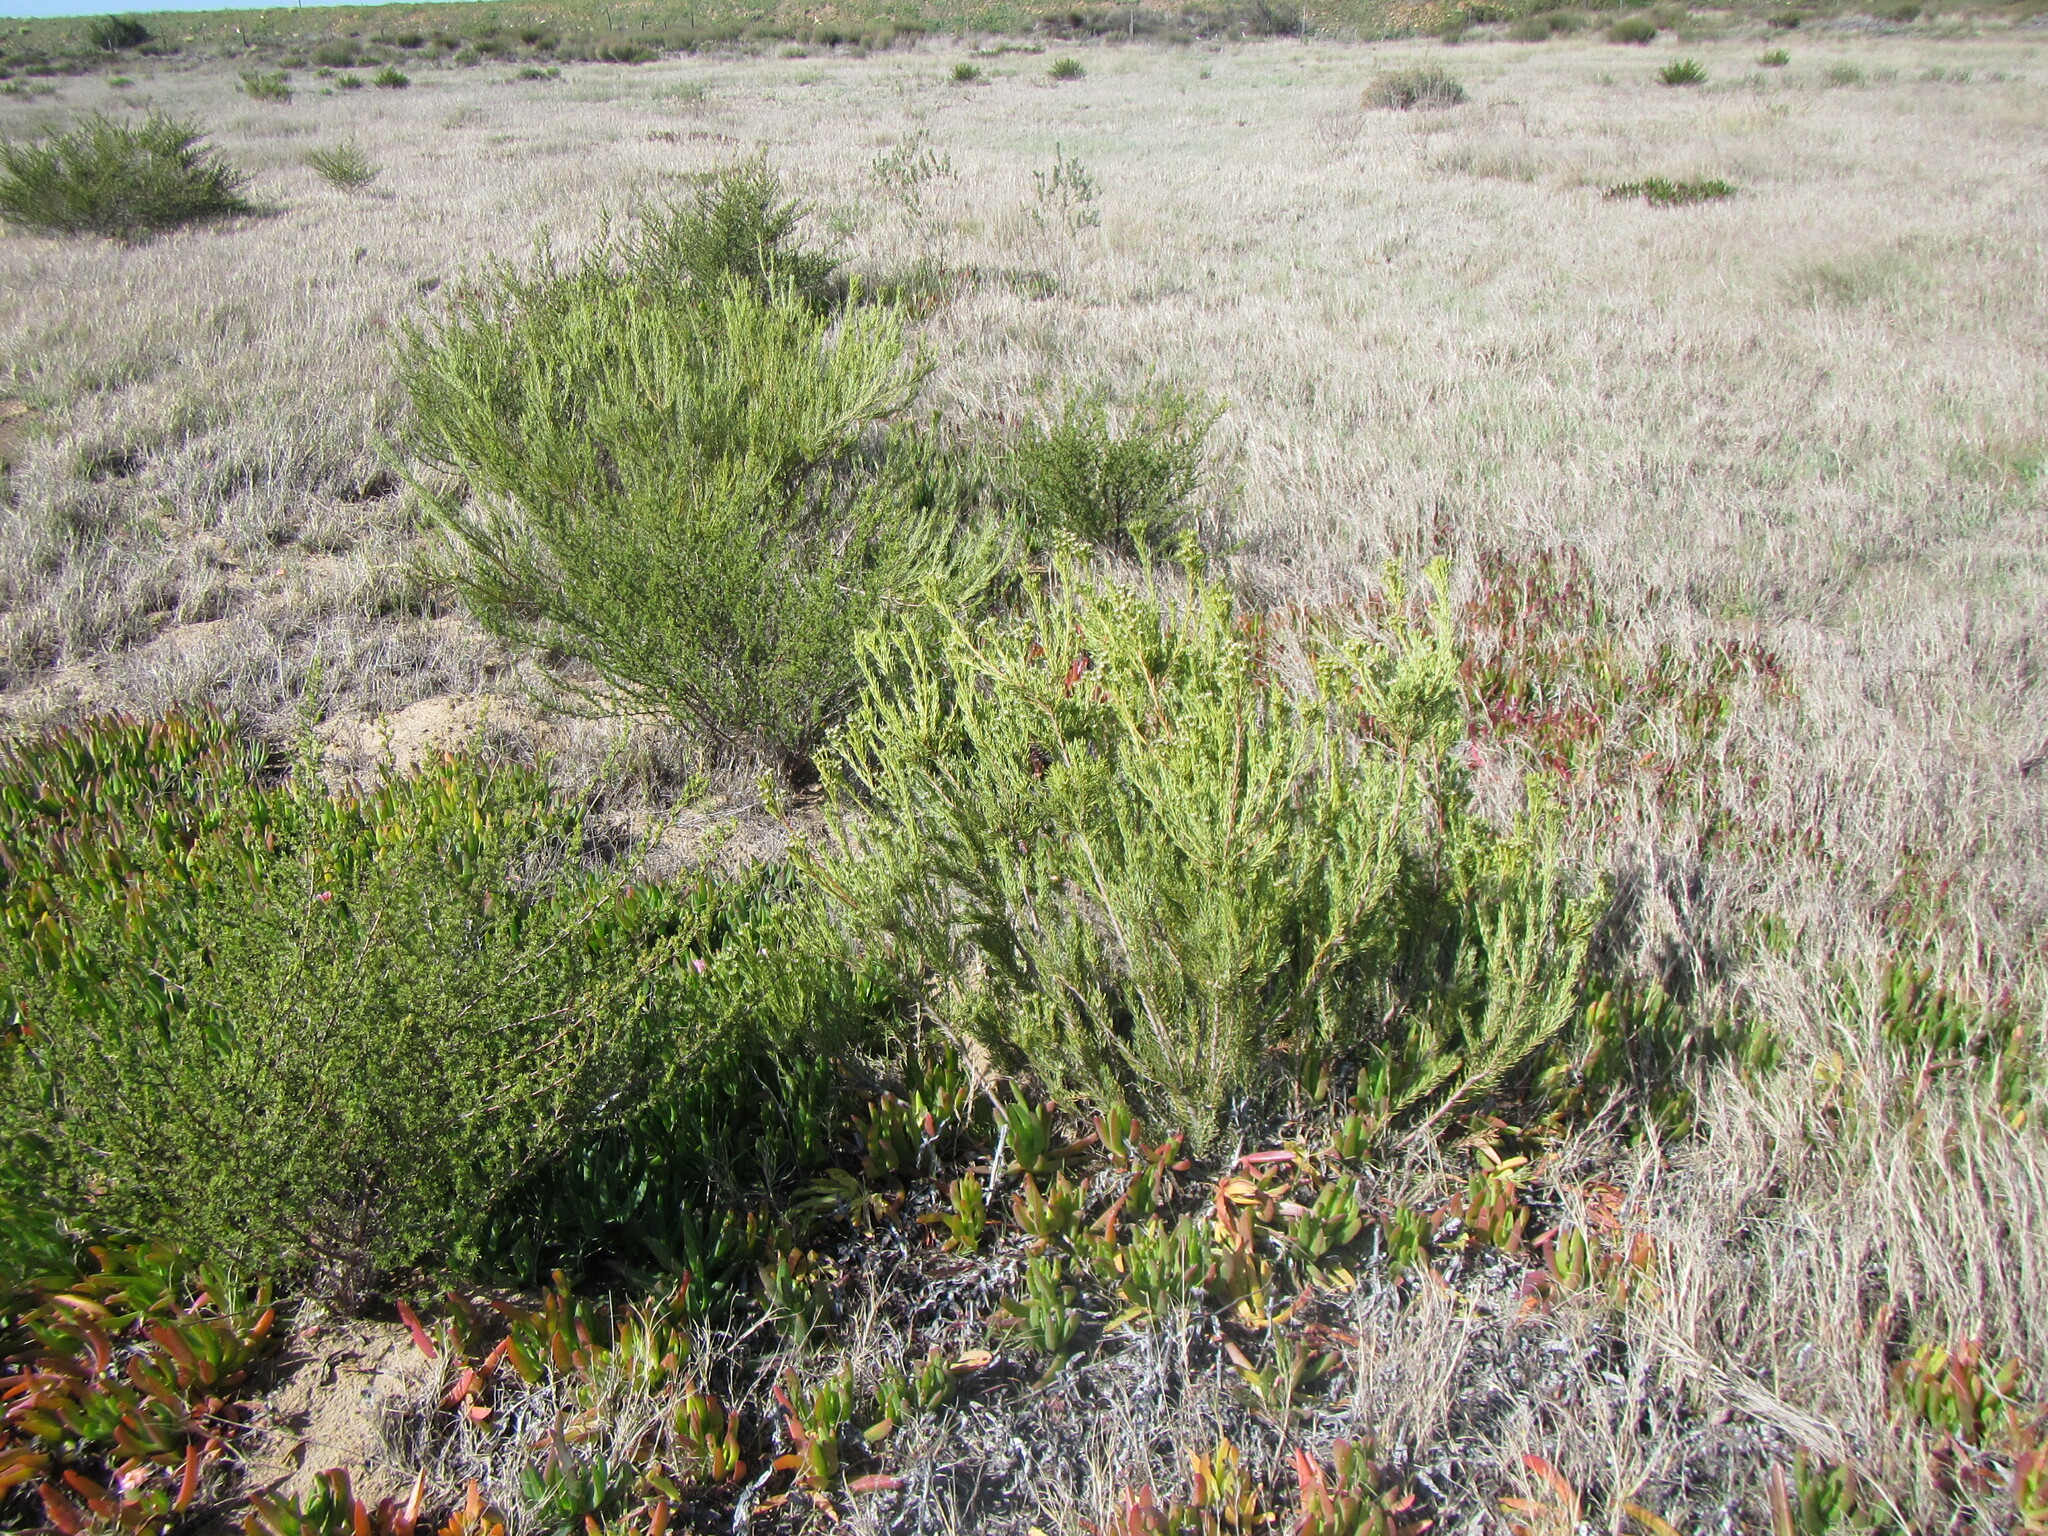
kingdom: Plantae
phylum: Tracheophyta
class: Magnoliopsida
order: Proteales
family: Proteaceae
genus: Leucadendron
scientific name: Leucadendron brunioides
